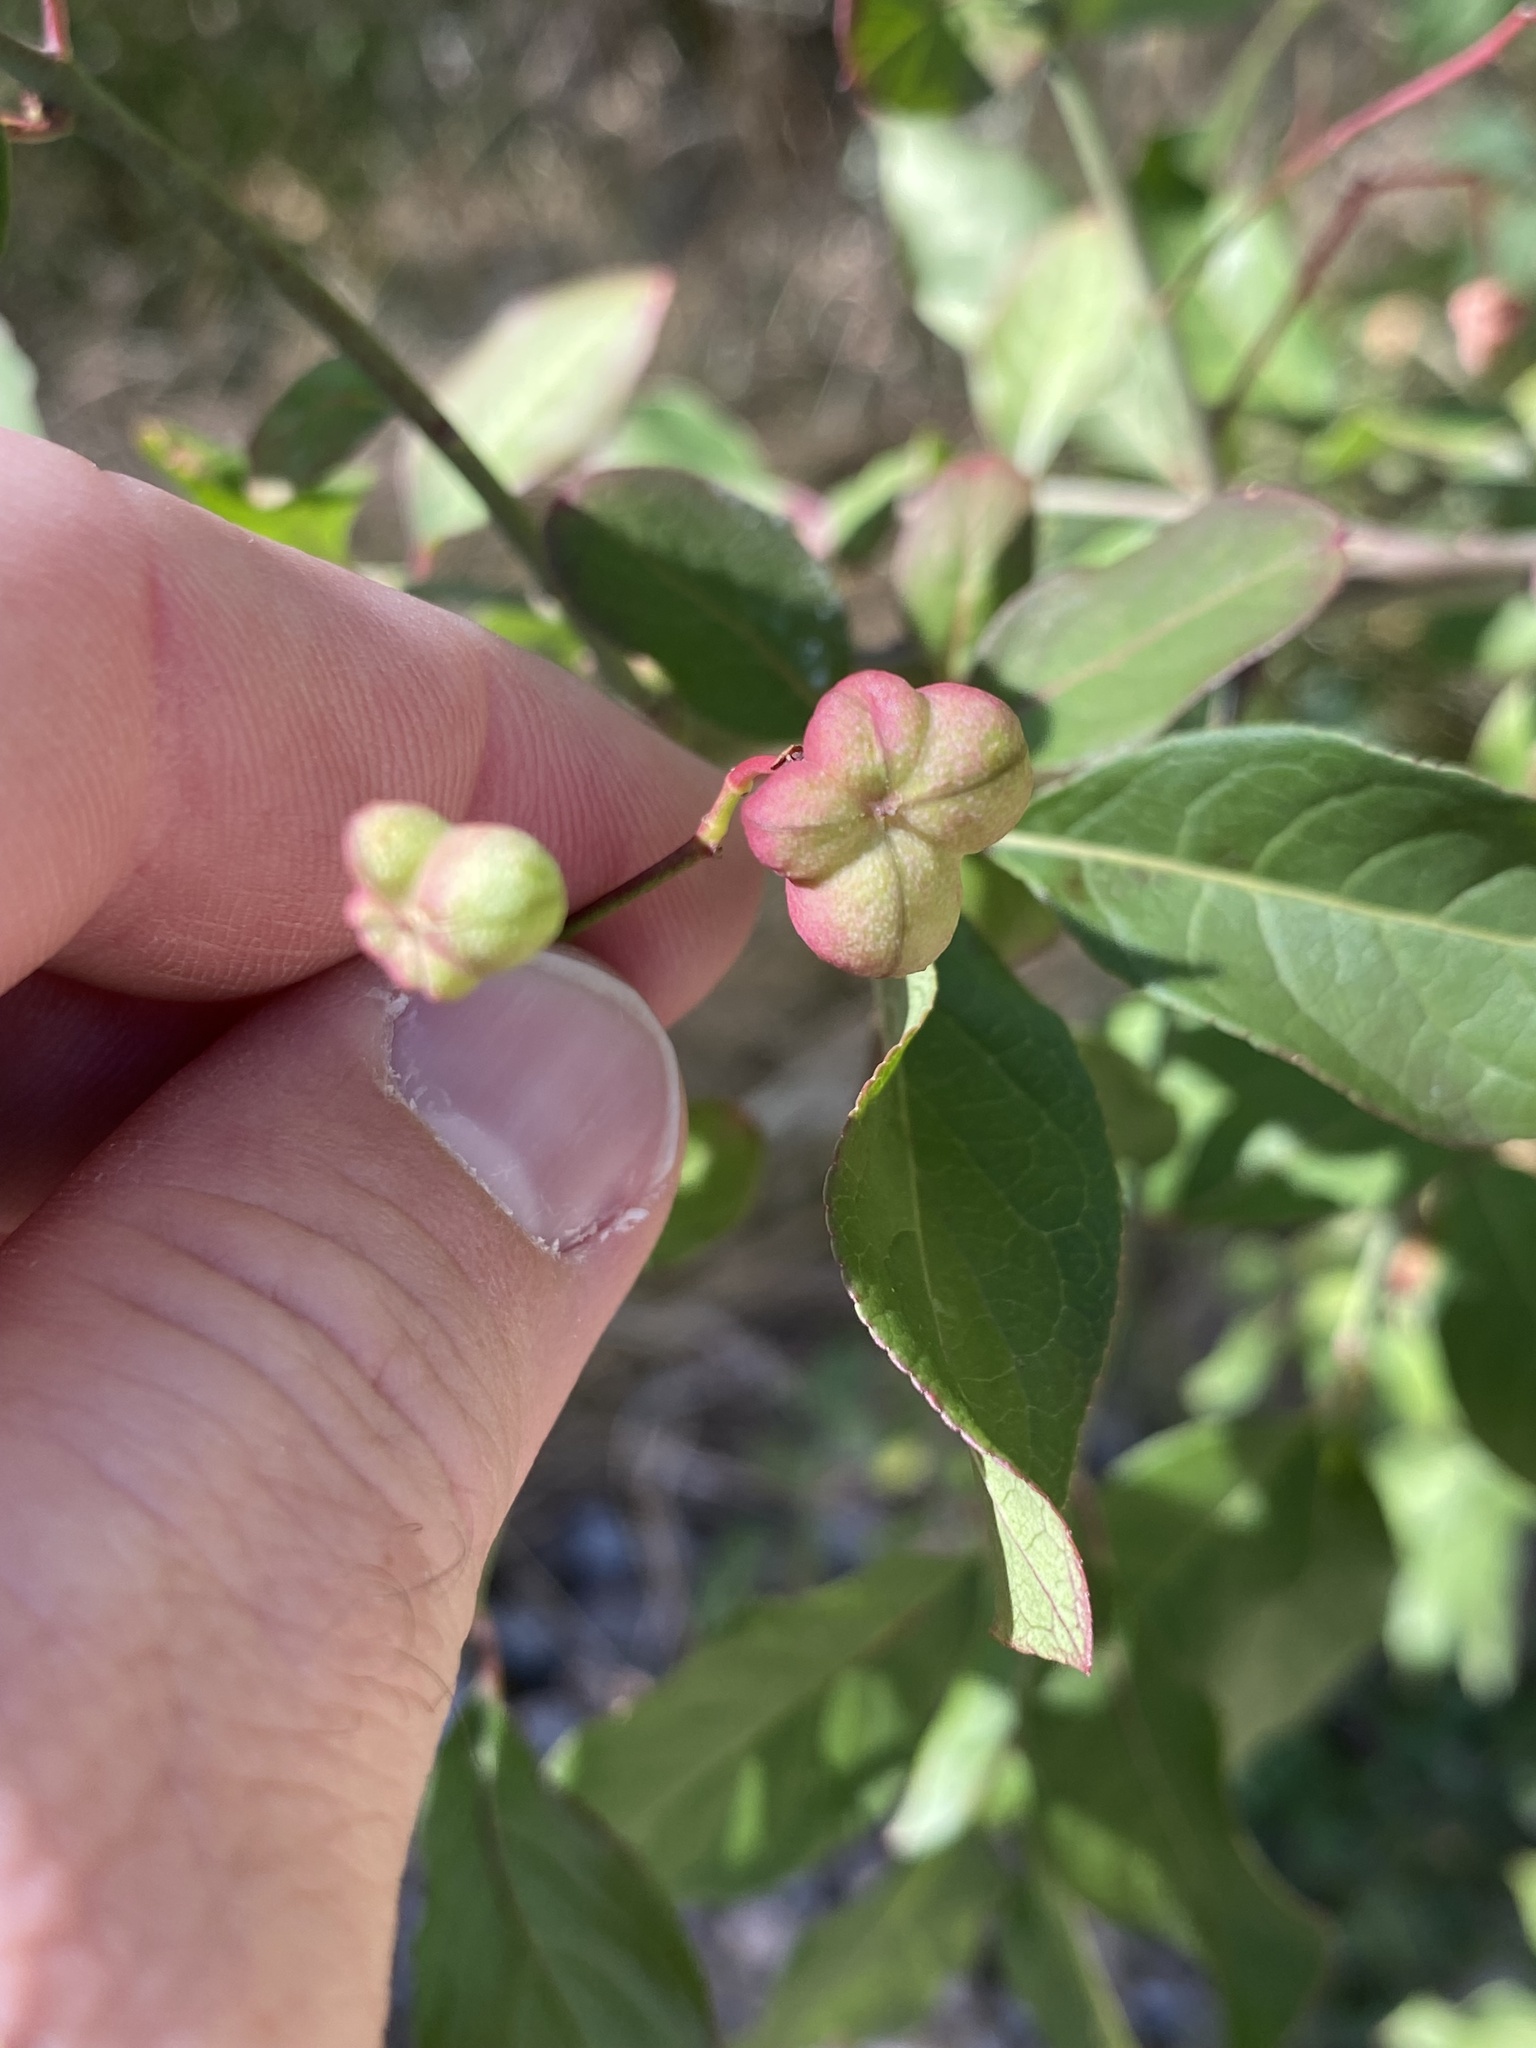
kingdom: Plantae
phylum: Tracheophyta
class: Magnoliopsida
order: Celastrales
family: Celastraceae
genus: Euonymus
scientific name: Euonymus europaeus
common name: Spindle
